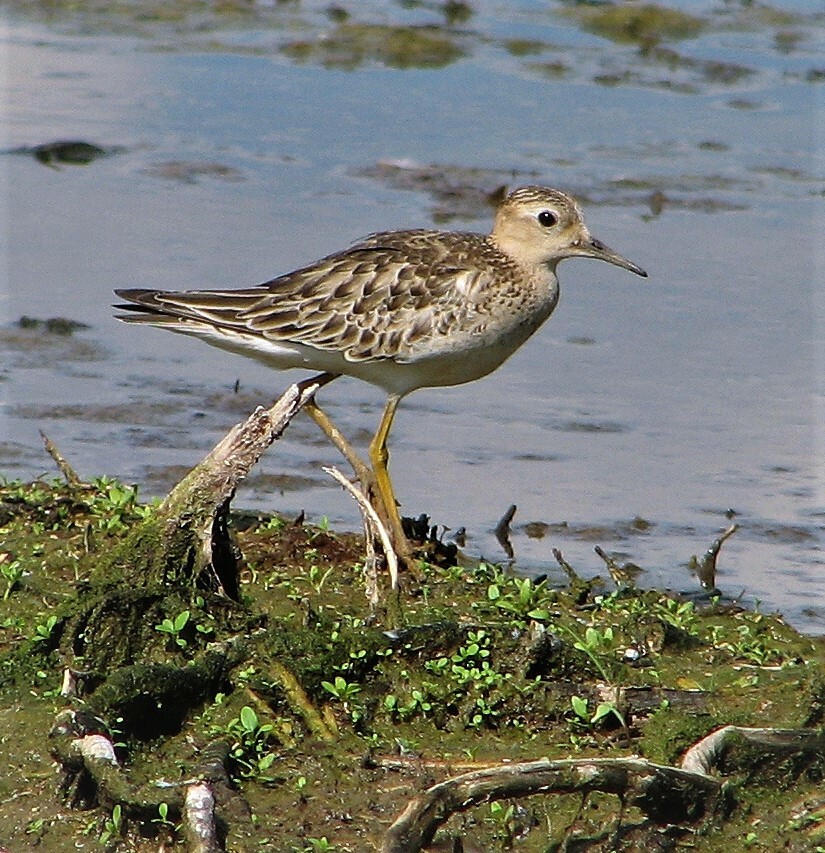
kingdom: Animalia
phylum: Chordata
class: Aves
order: Charadriiformes
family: Scolopacidae
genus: Calidris
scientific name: Calidris subruficollis
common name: Buff-breasted sandpiper
